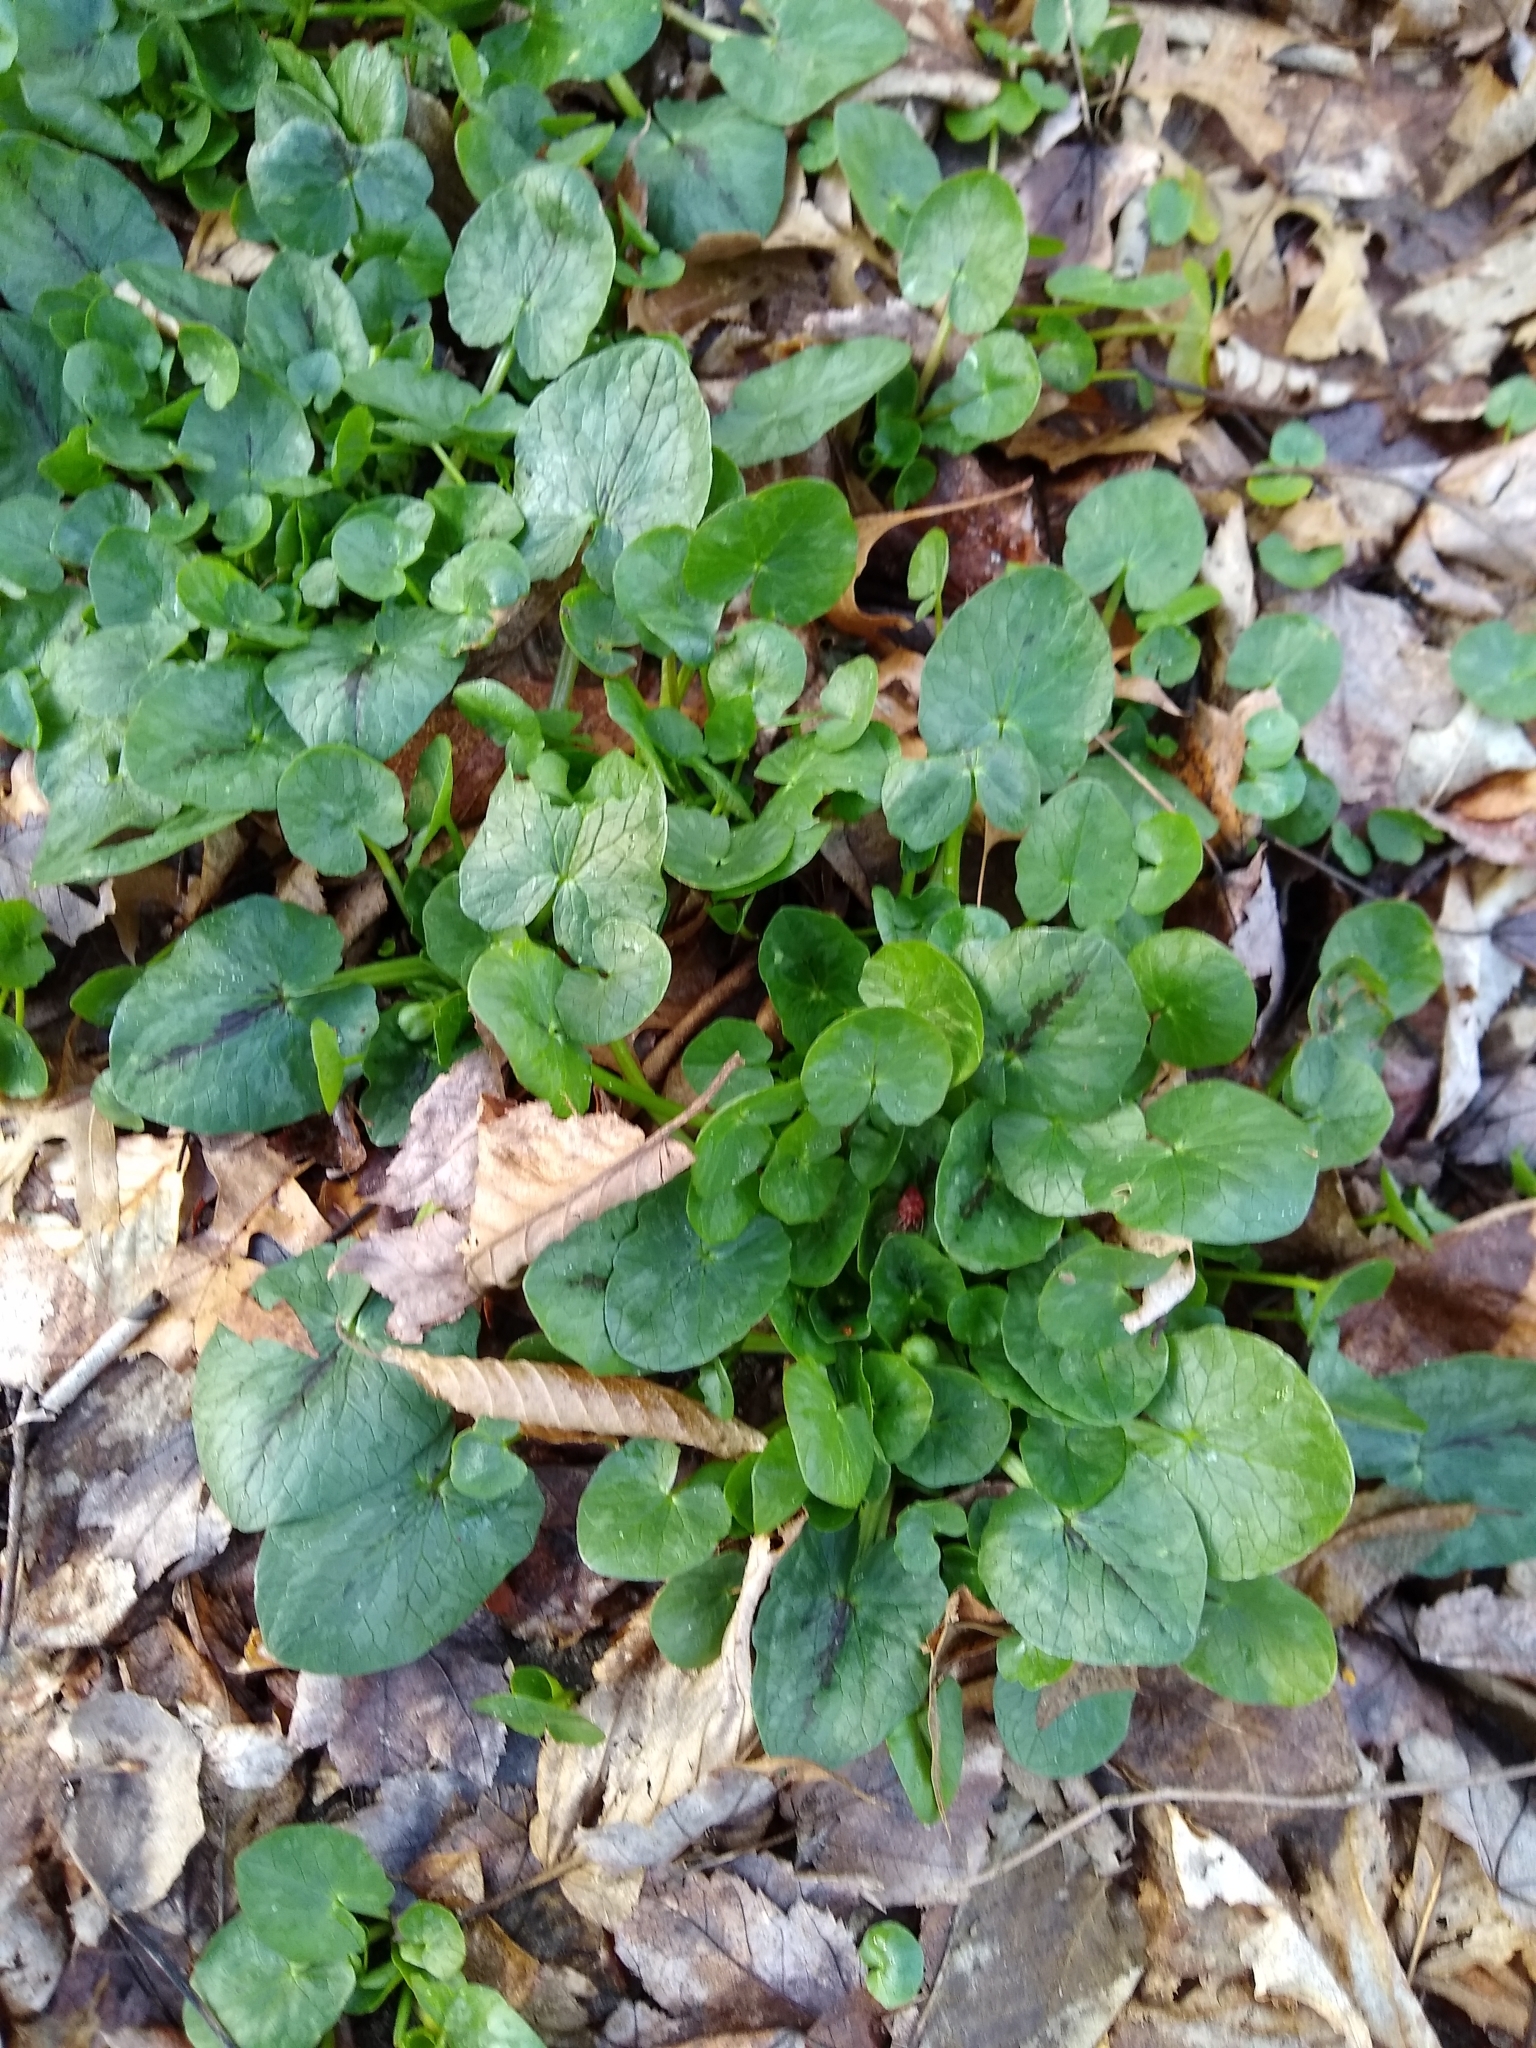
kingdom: Plantae
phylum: Tracheophyta
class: Magnoliopsida
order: Ranunculales
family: Ranunculaceae
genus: Ficaria
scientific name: Ficaria verna
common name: Lesser celandine
